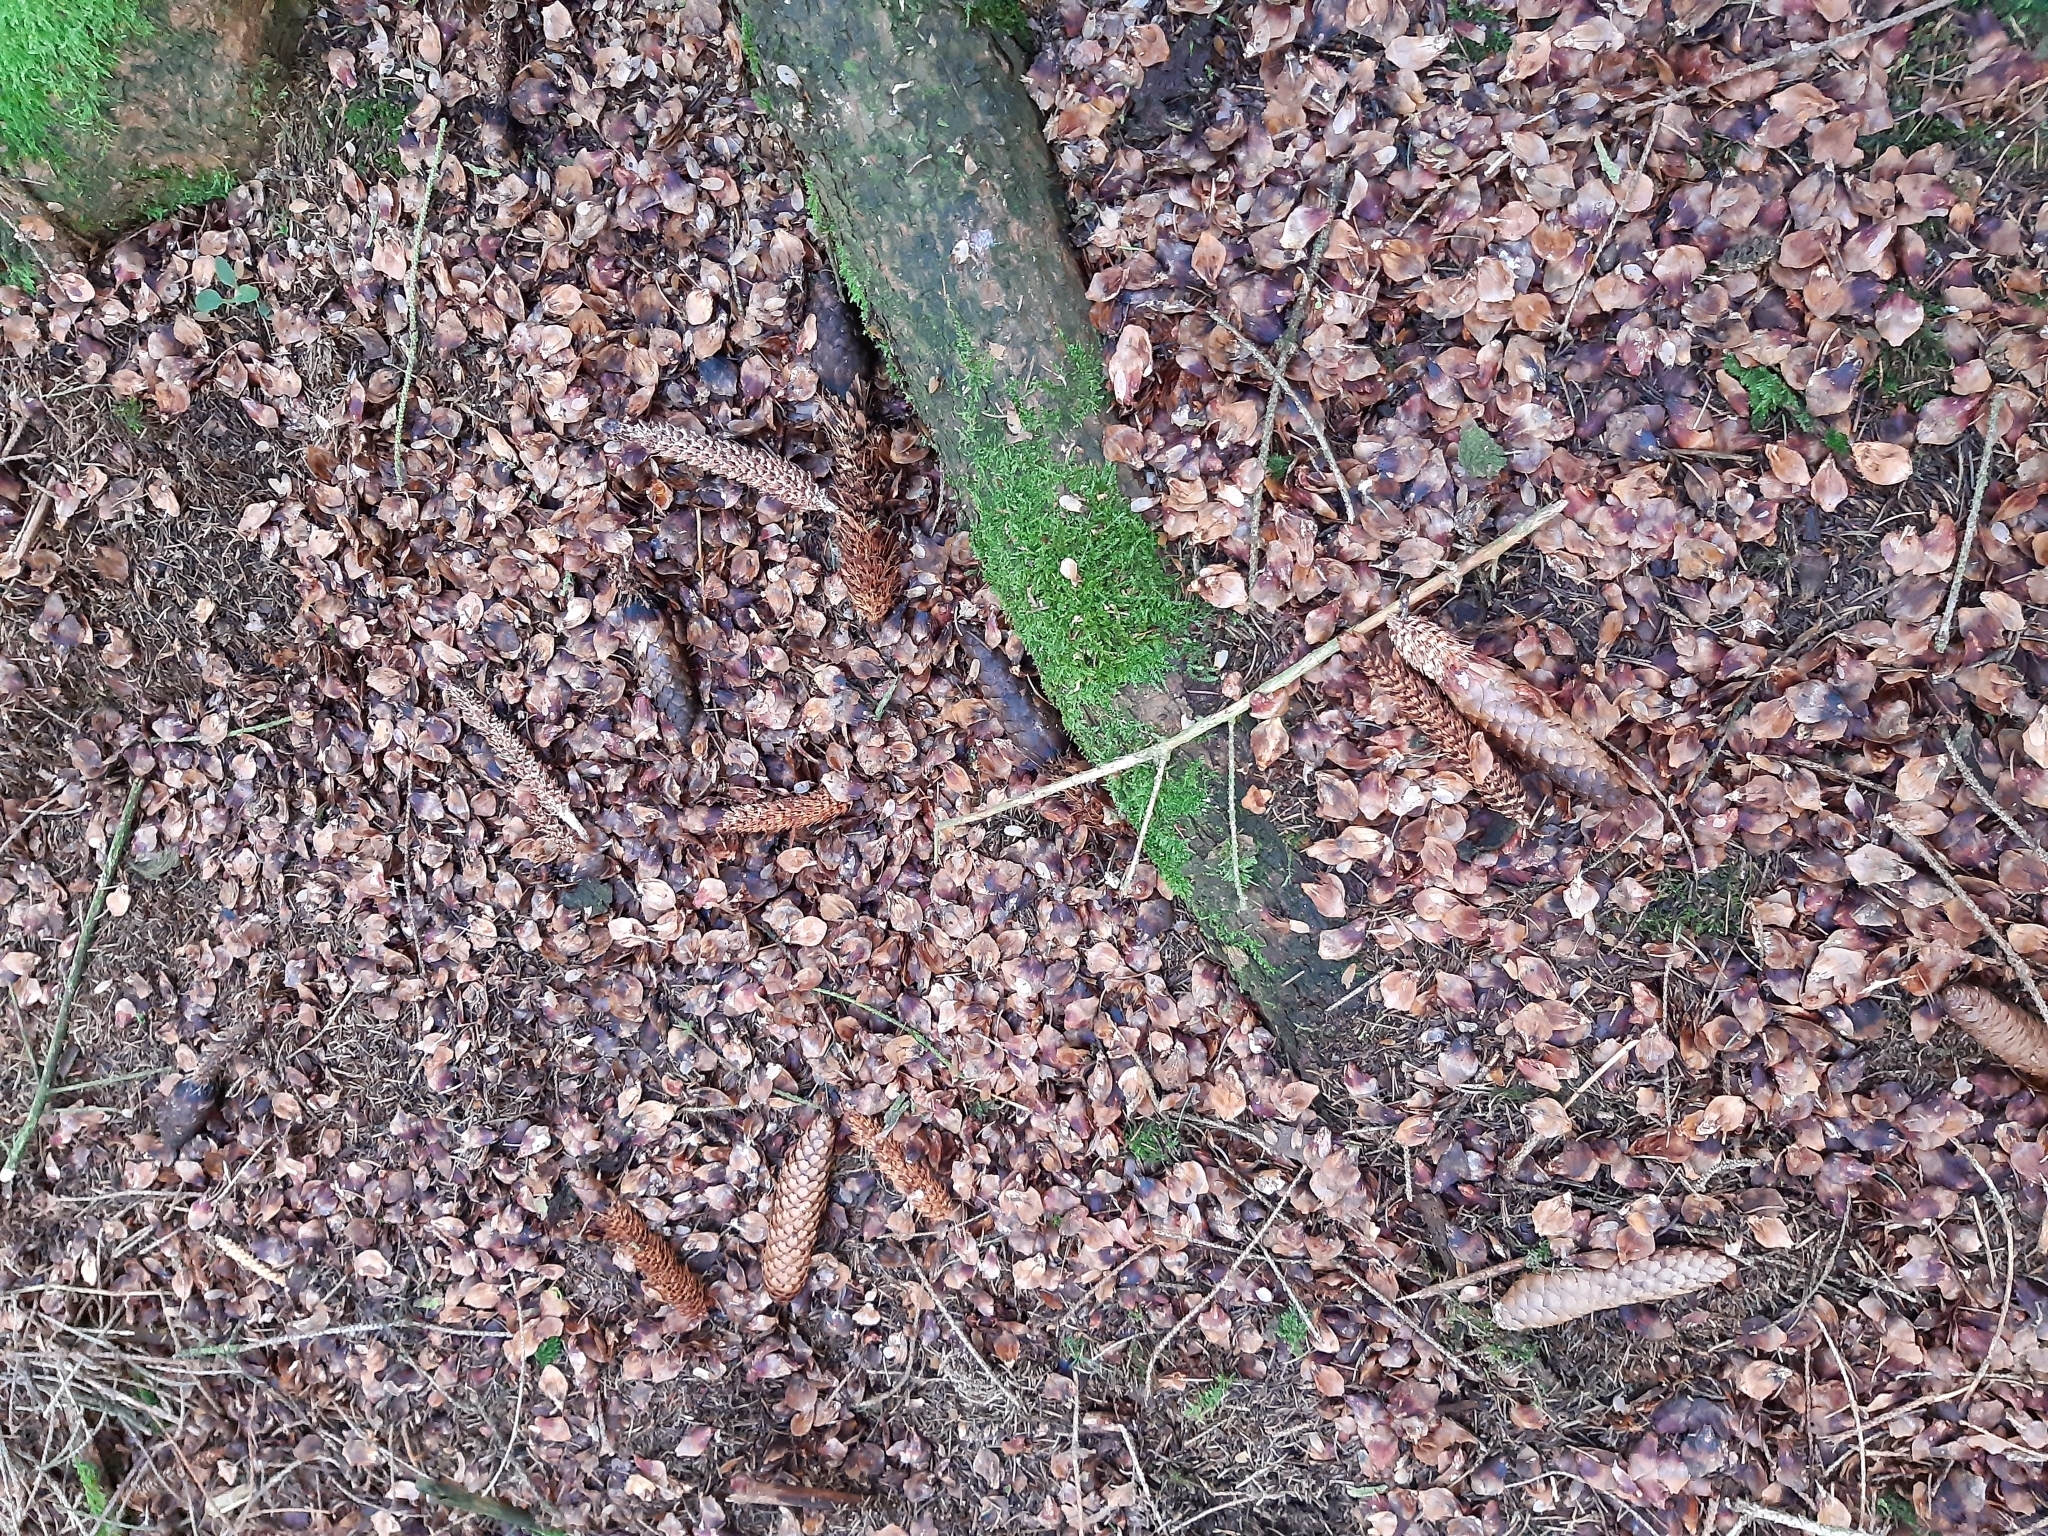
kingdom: Animalia
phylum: Chordata
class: Mammalia
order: Rodentia
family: Sciuridae
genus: Sciurus
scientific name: Sciurus vulgaris
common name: Eurasian red squirrel
